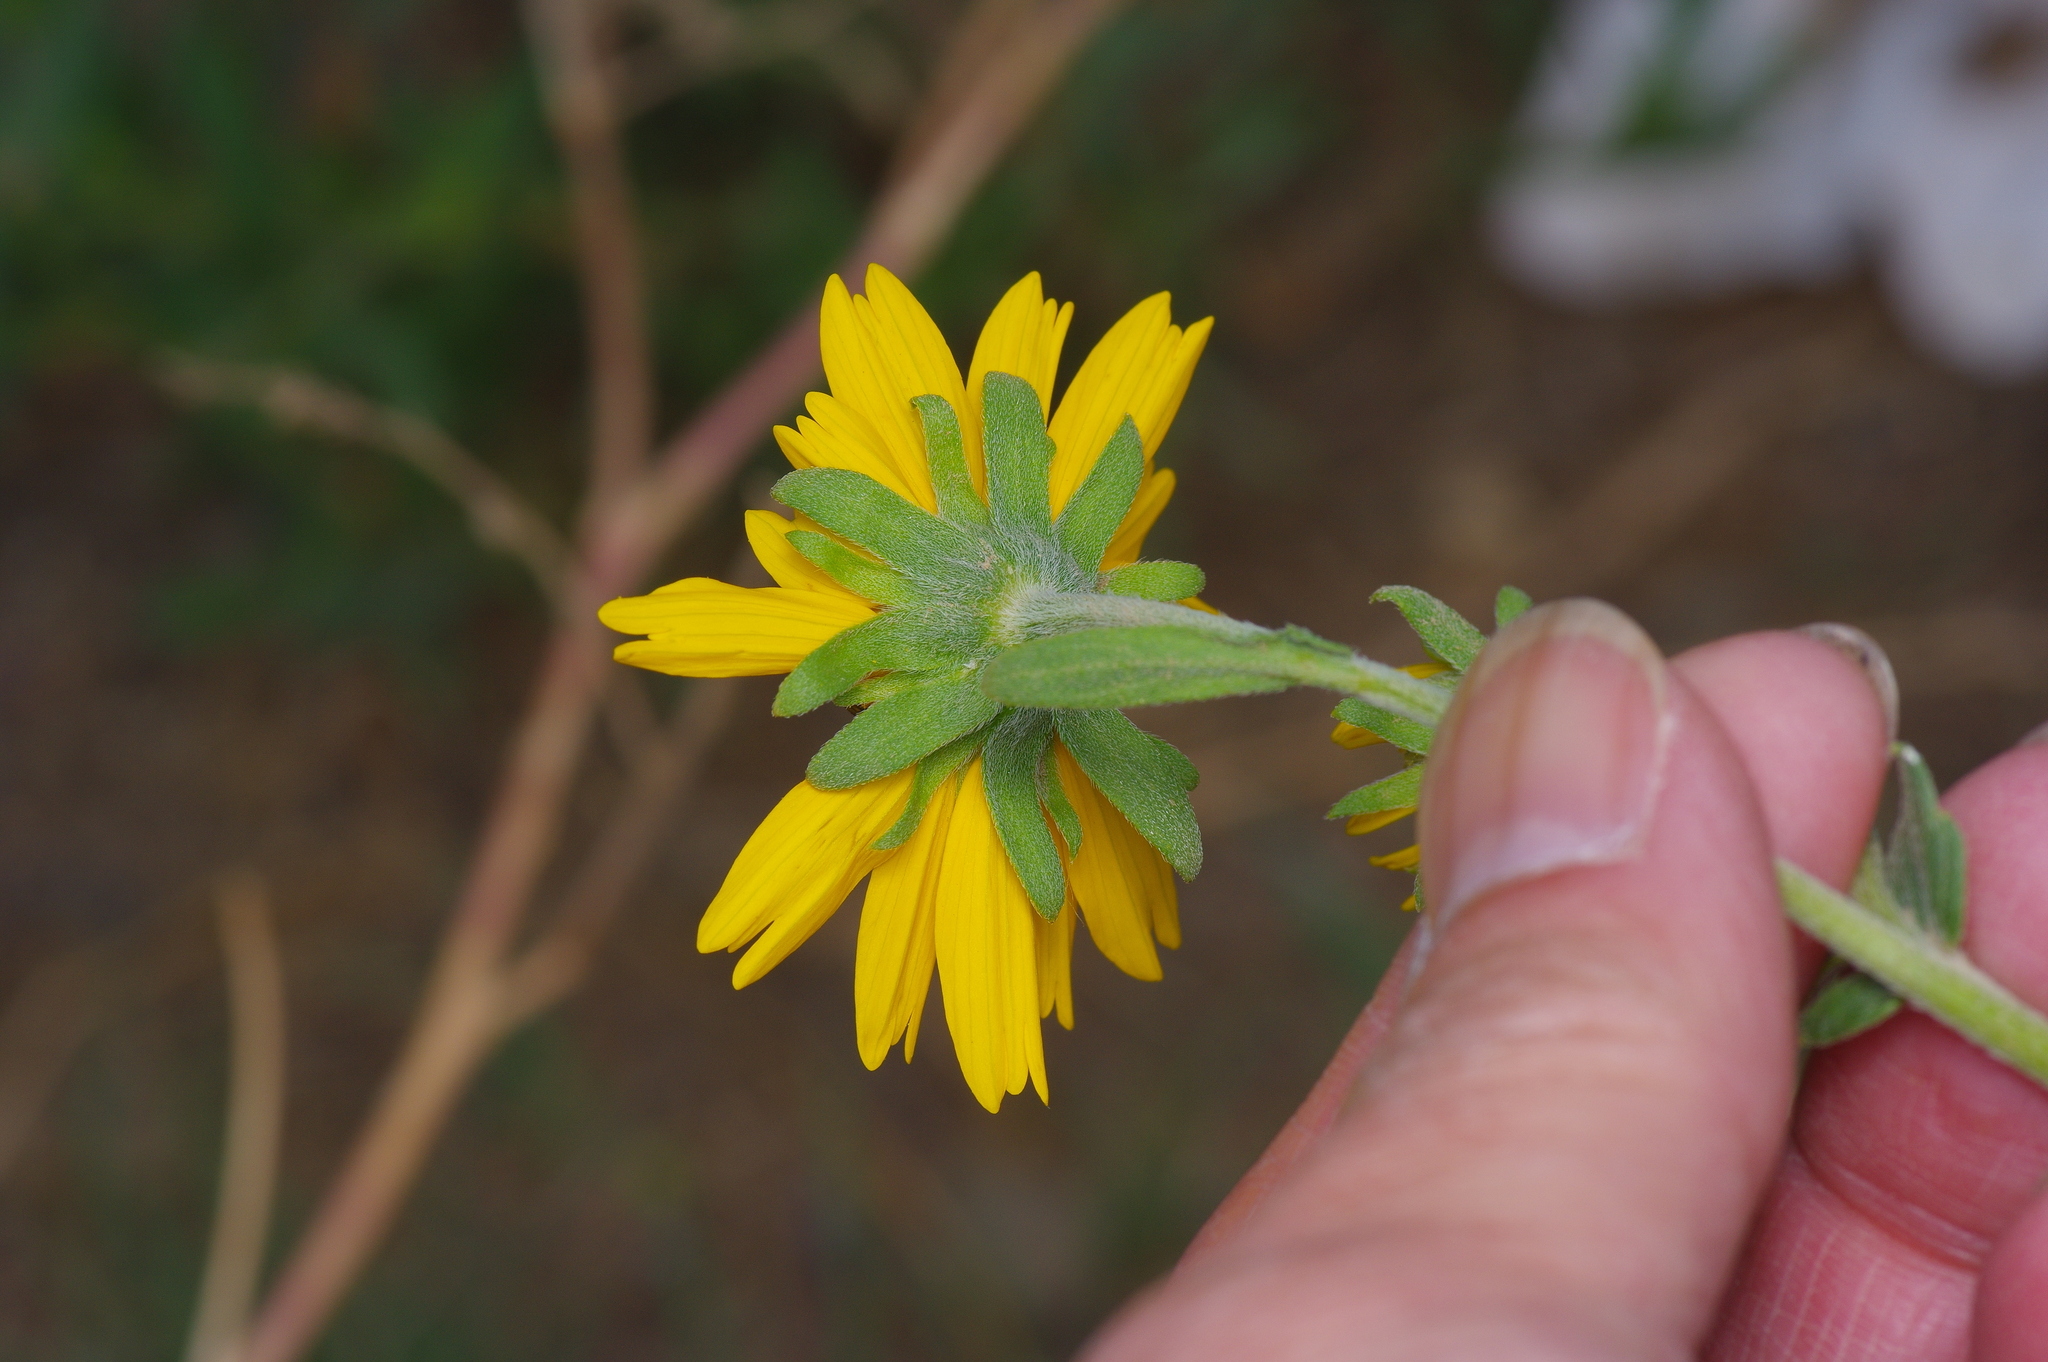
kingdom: Plantae
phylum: Tracheophyta
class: Magnoliopsida
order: Asterales
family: Asteraceae
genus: Verbesina
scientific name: Verbesina encelioides
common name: Golden crownbeard
